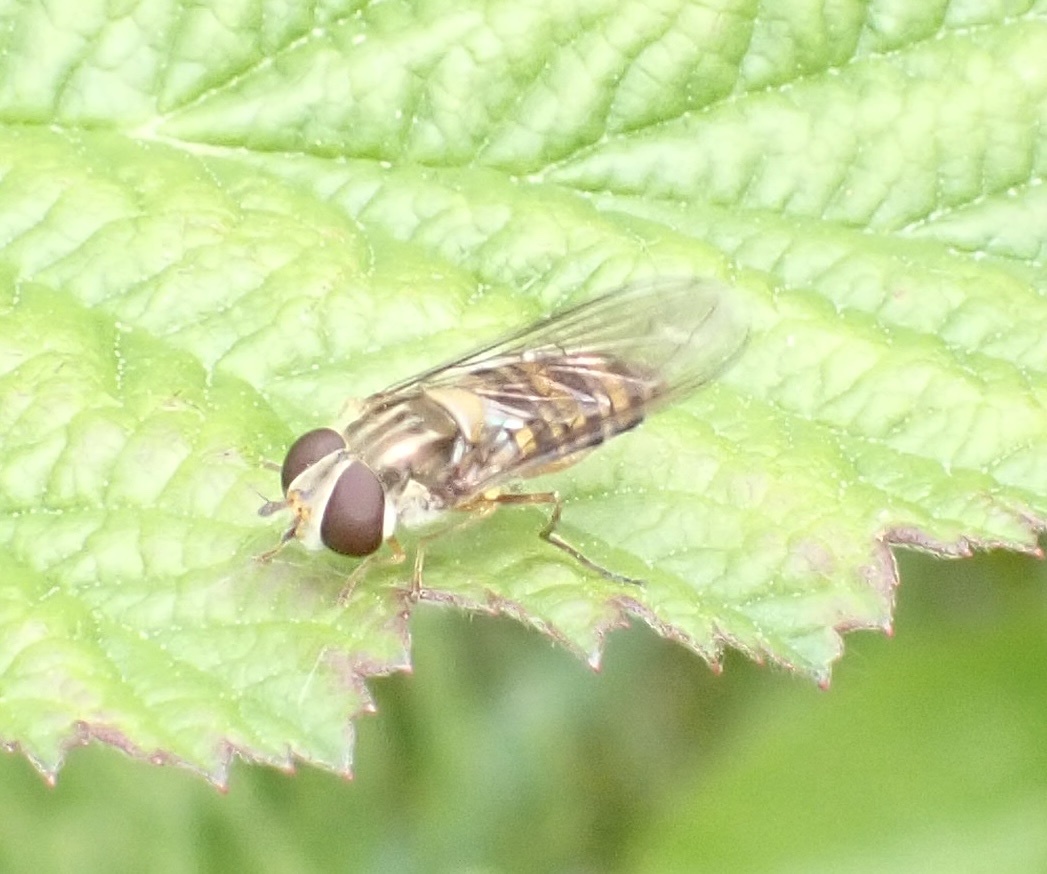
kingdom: Animalia
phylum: Arthropoda
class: Insecta
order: Diptera
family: Syrphidae
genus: Episyrphus
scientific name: Episyrphus balteatus
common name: Marmalade hoverfly
